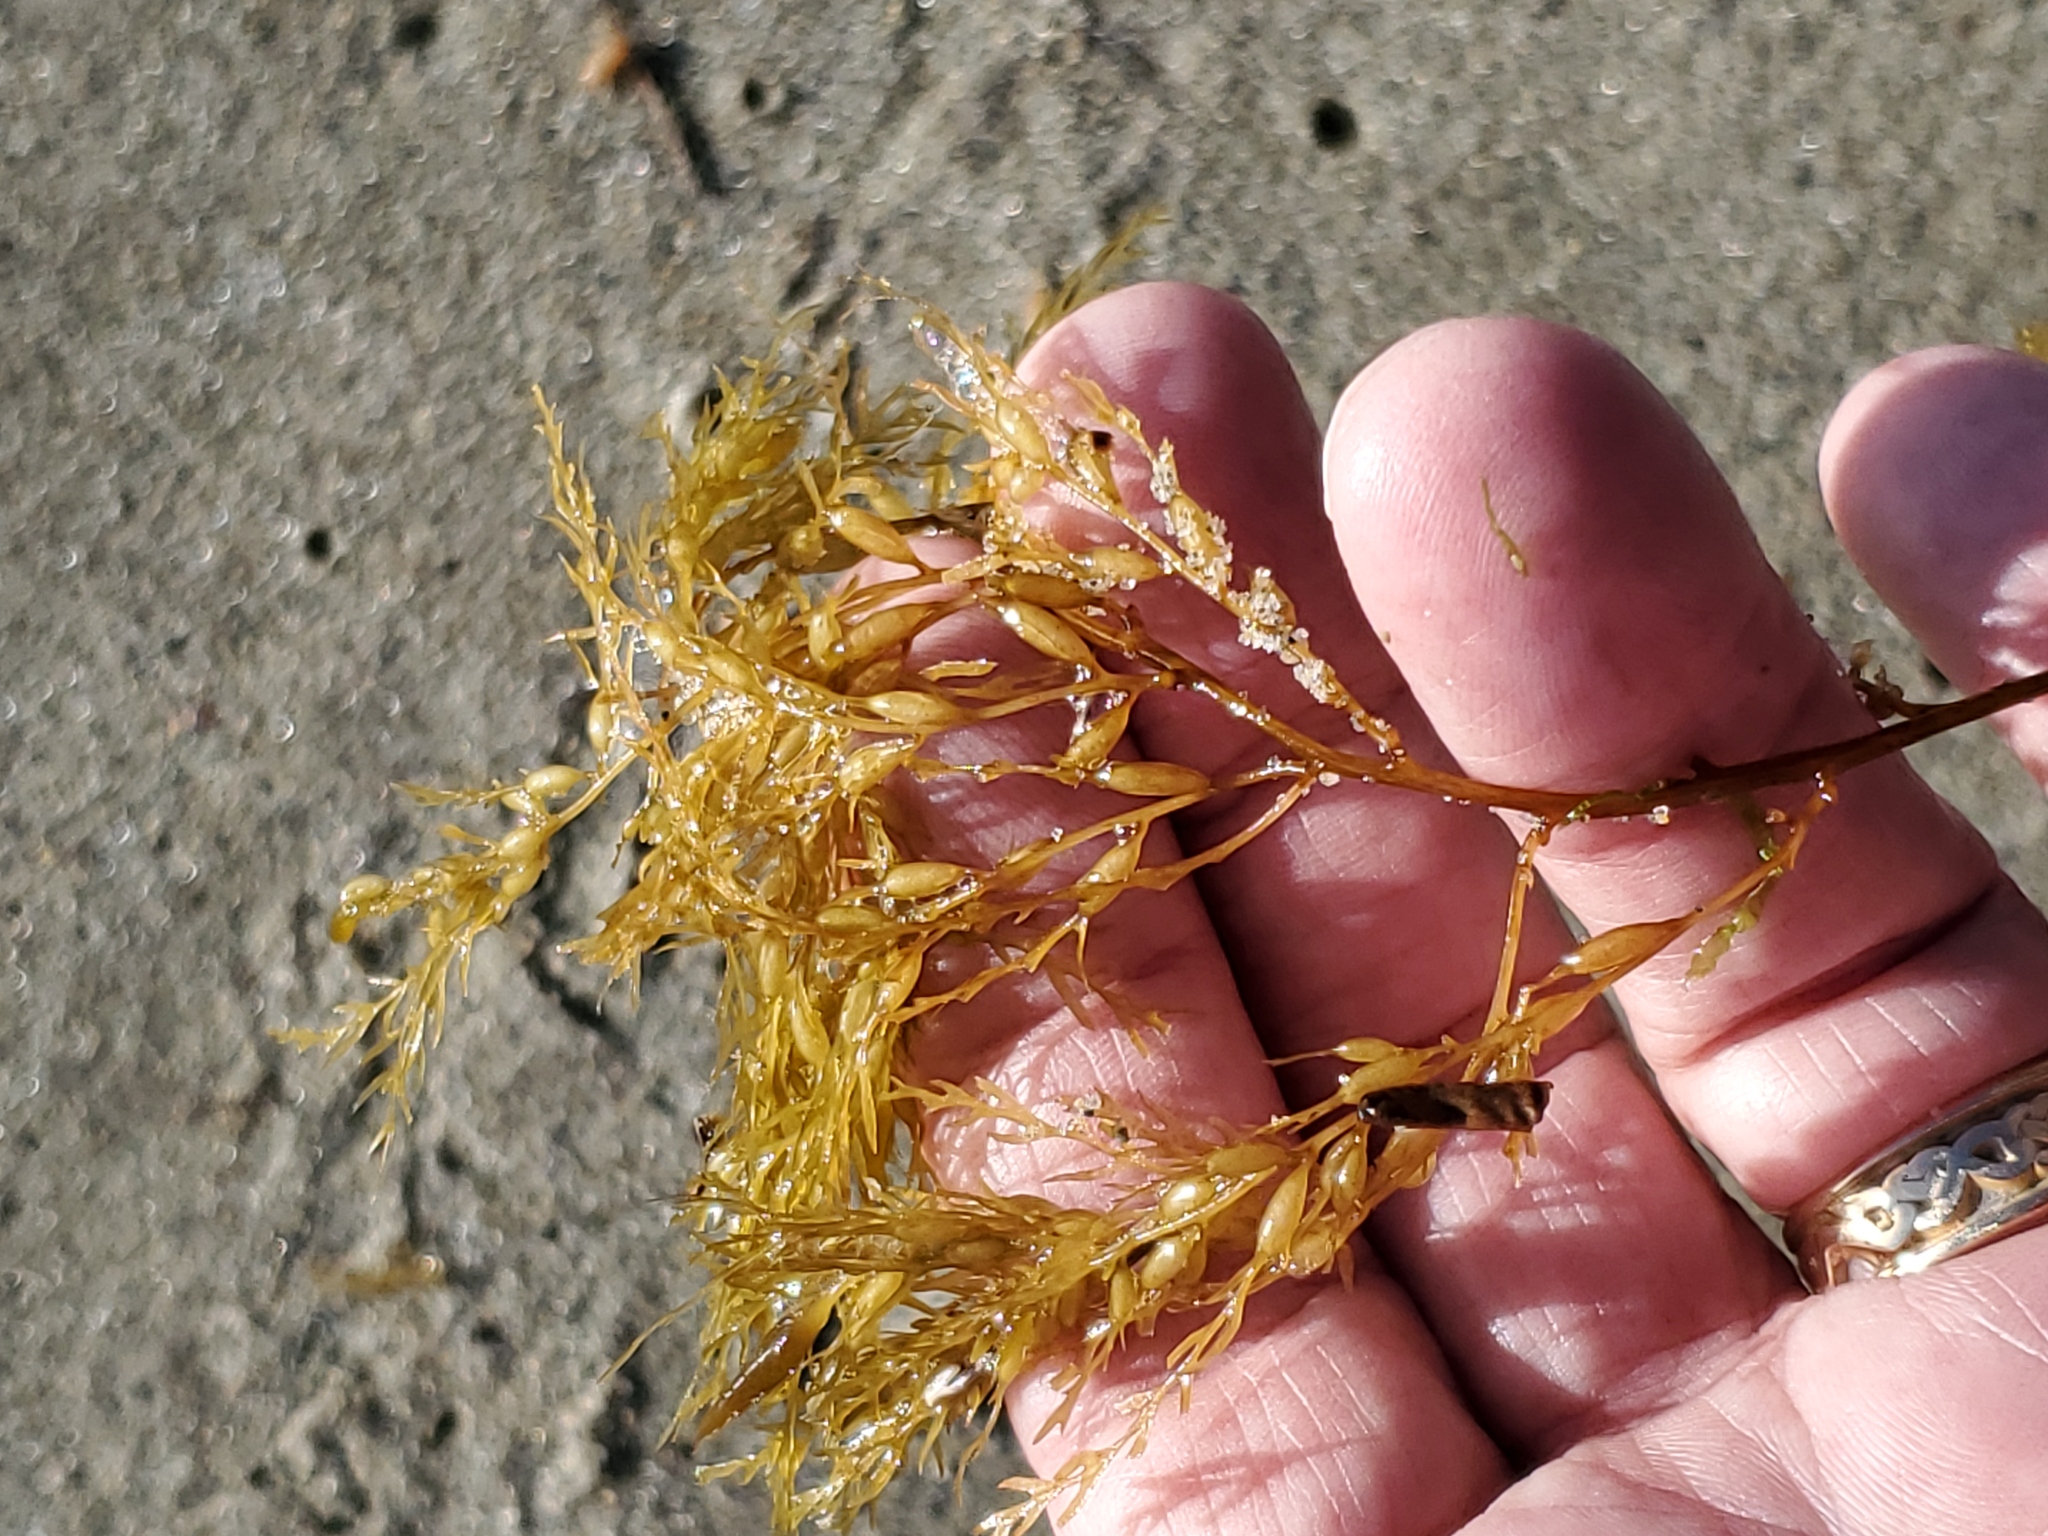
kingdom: Chromista
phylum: Ochrophyta
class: Phaeophyceae
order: Fucales
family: Sargassaceae
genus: Sargassum
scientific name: Sargassum horneri
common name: Devil weed
